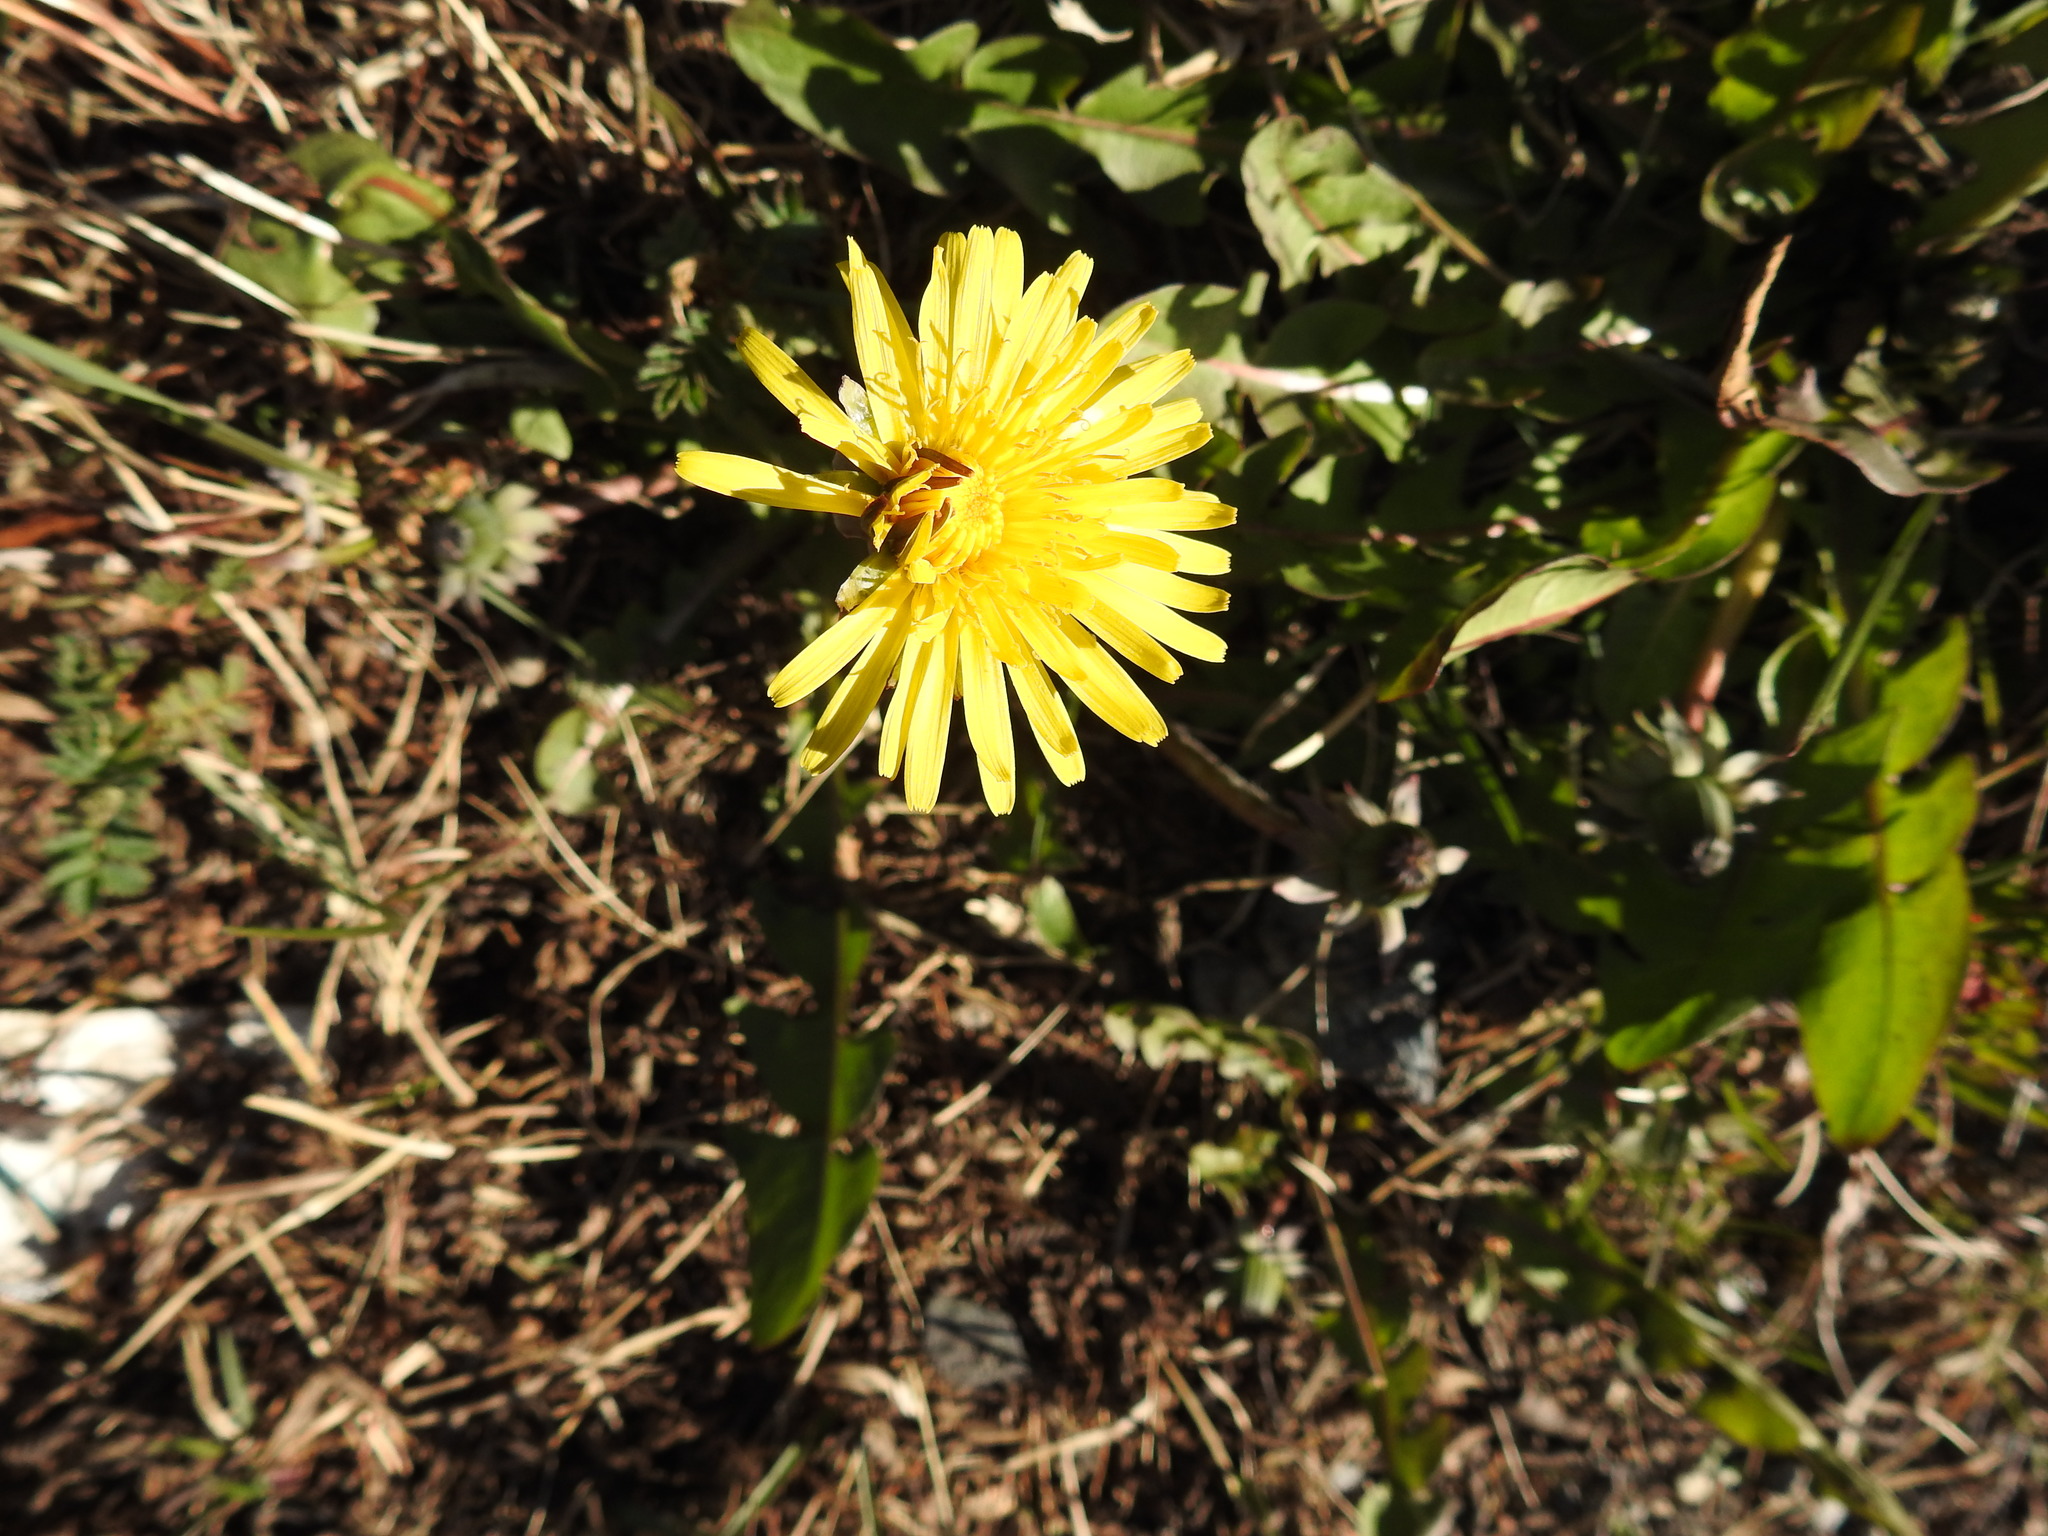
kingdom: Plantae
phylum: Tracheophyta
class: Magnoliopsida
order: Asterales
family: Asteraceae
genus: Taraxacum
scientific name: Taraxacum officinale
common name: Common dandelion
